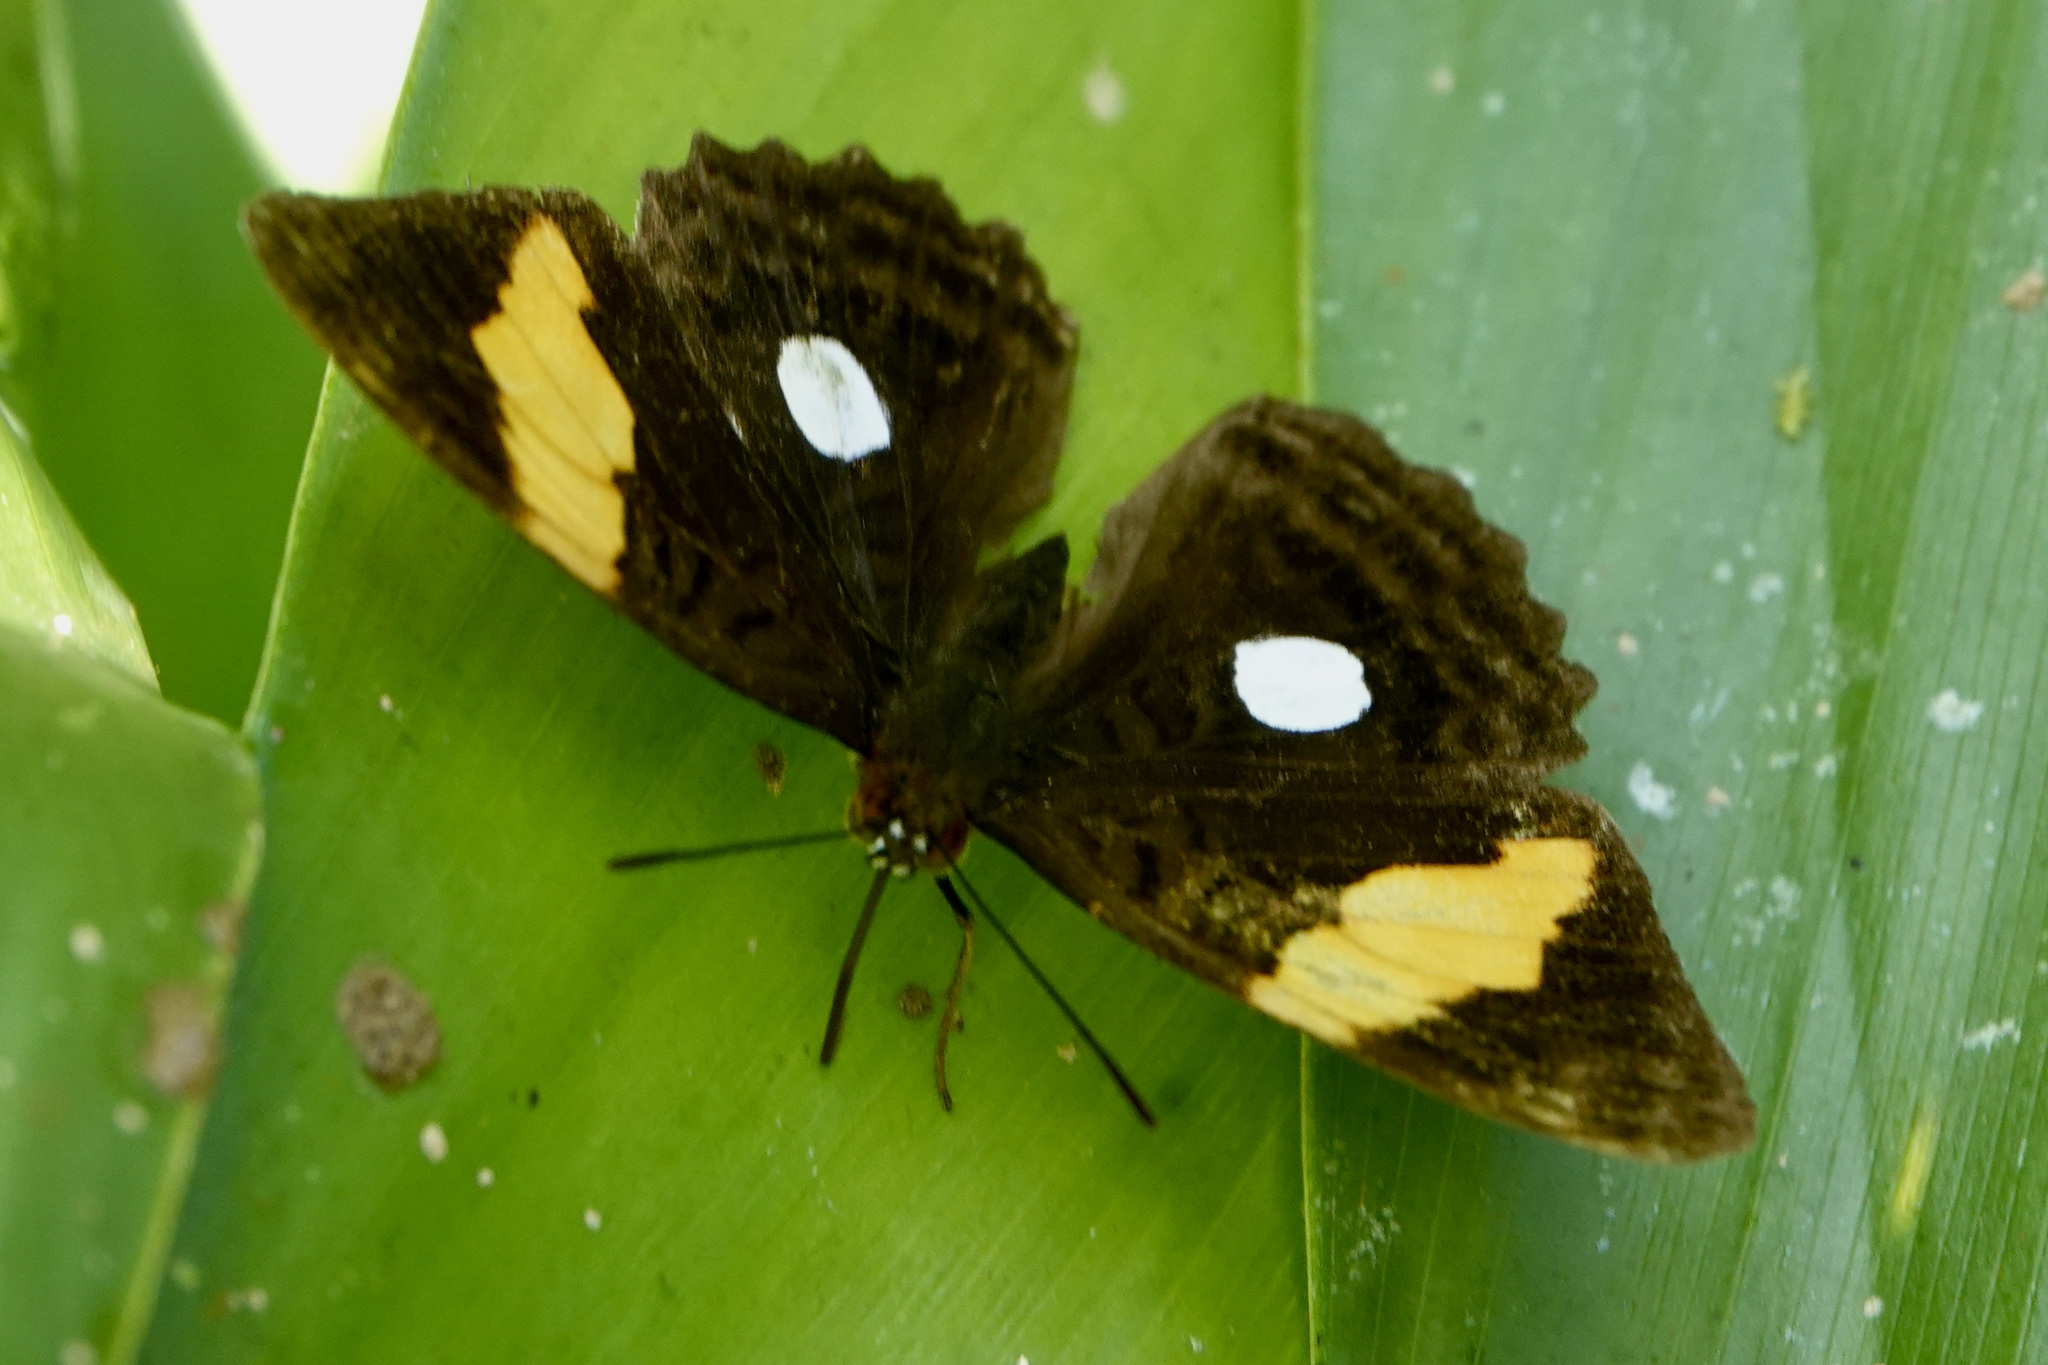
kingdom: Animalia
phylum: Arthropoda
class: Insecta
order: Lepidoptera
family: Nymphalidae
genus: Limenitis
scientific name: Limenitis leucophthalma
